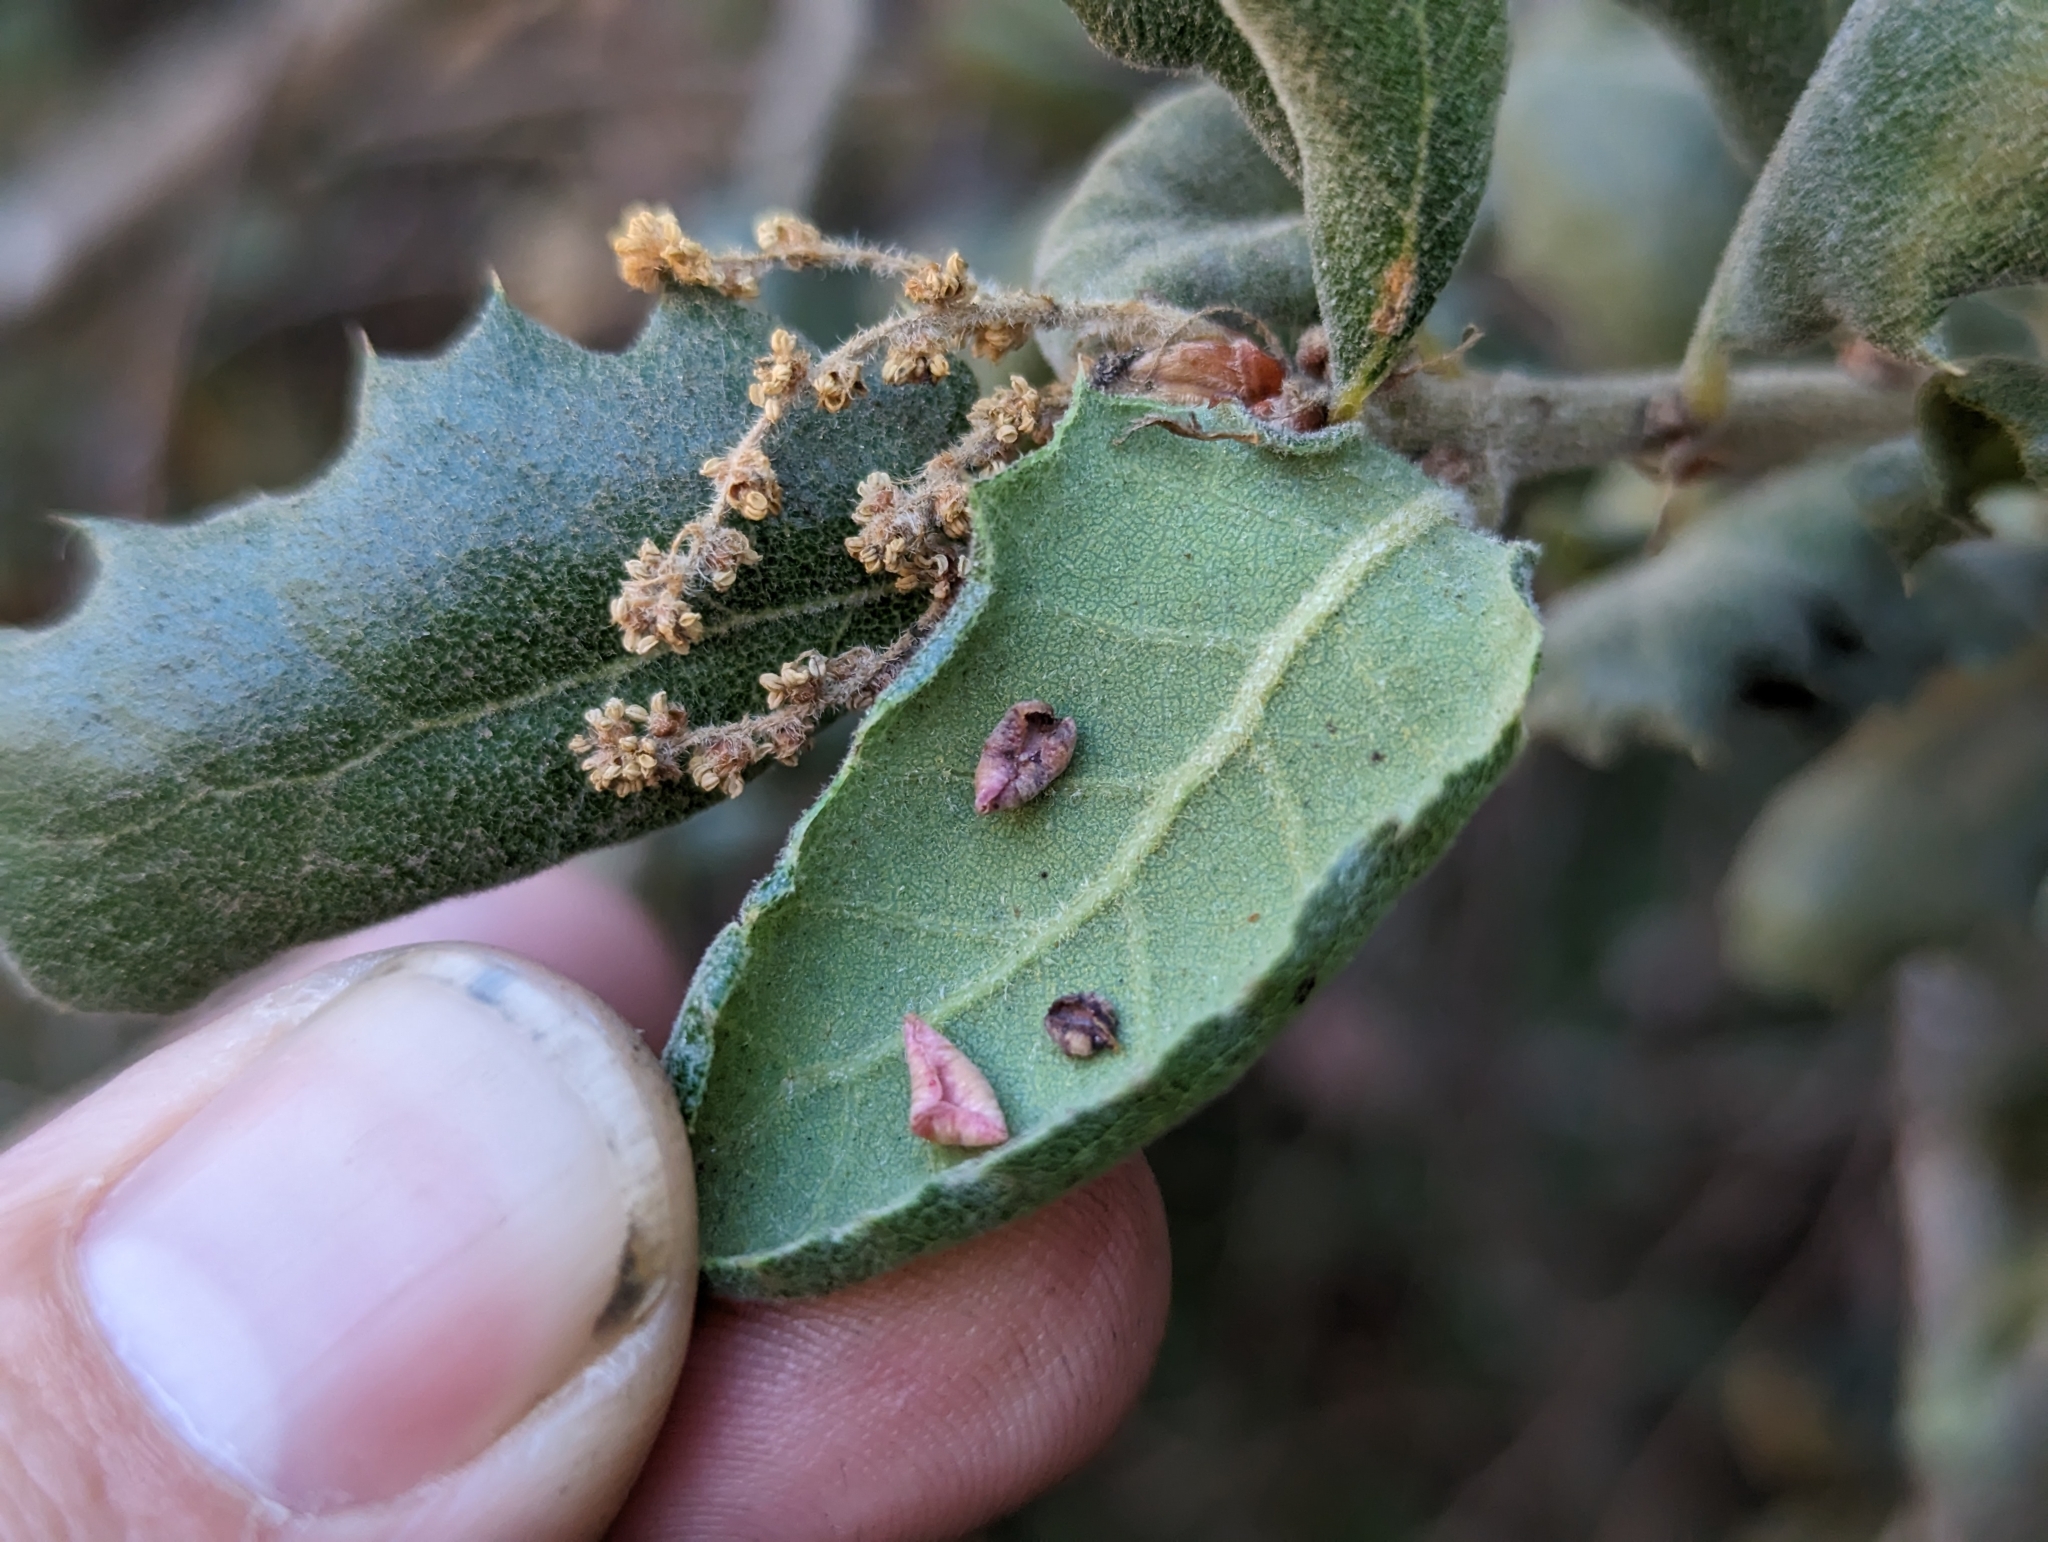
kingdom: Animalia
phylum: Arthropoda
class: Insecta
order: Hymenoptera
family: Cynipidae
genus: Andricus
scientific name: Andricus
